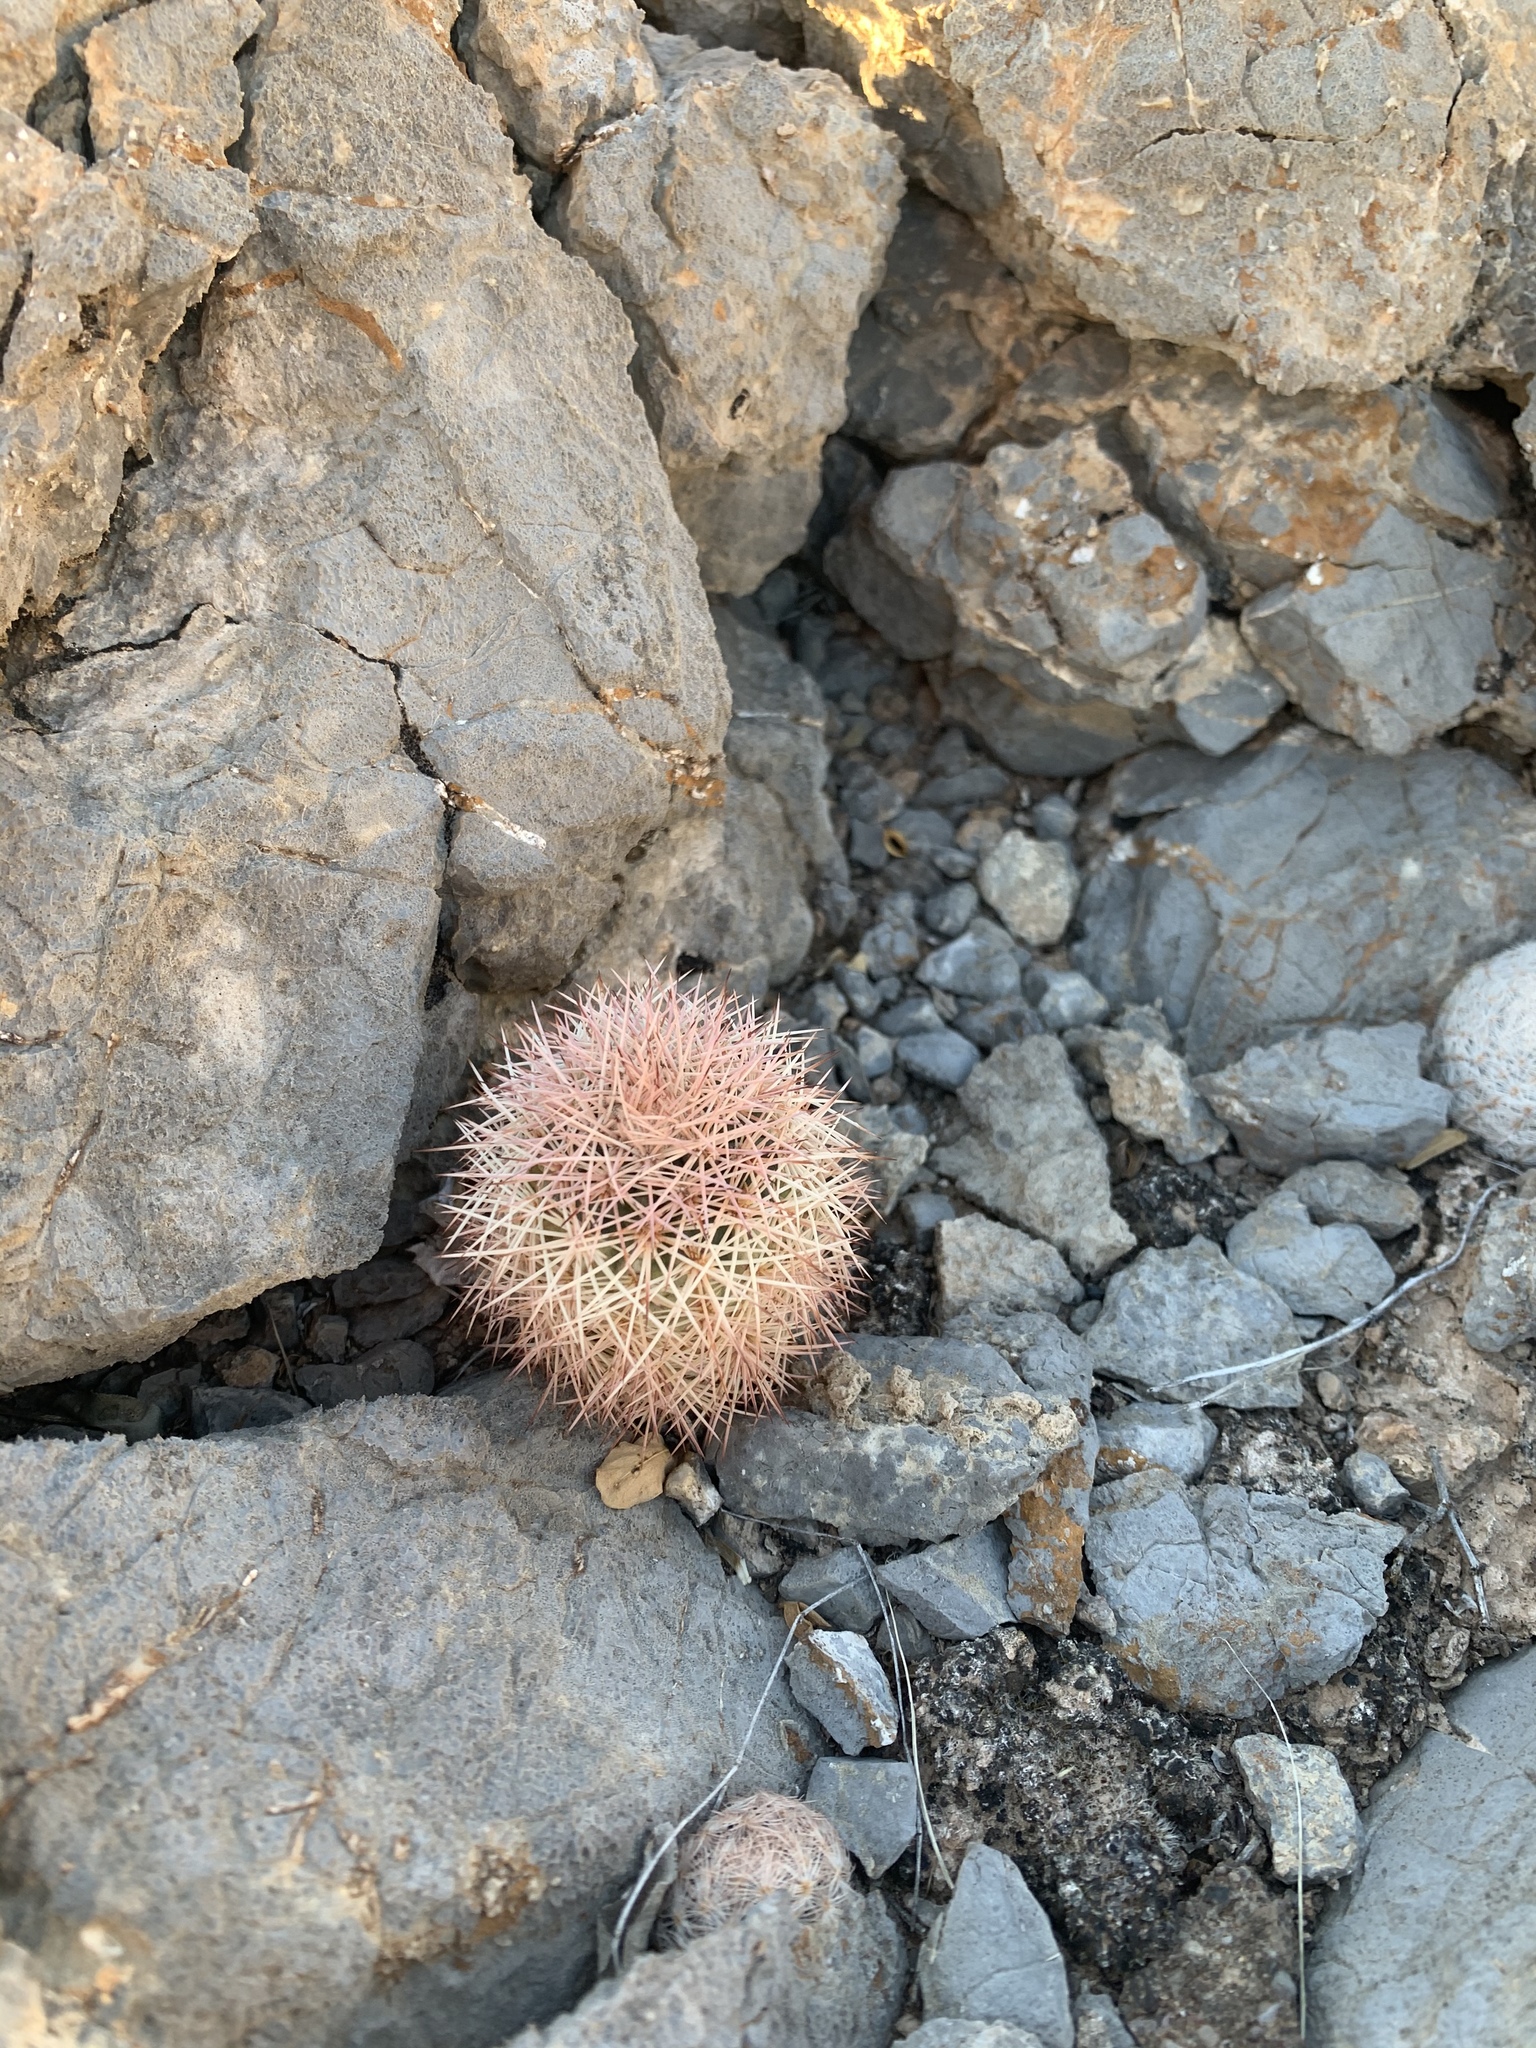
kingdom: Plantae
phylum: Tracheophyta
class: Magnoliopsida
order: Caryophyllales
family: Cactaceae
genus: Echinocereus
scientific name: Echinocereus dasyacanthus
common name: Spiny hedgehog cactus
